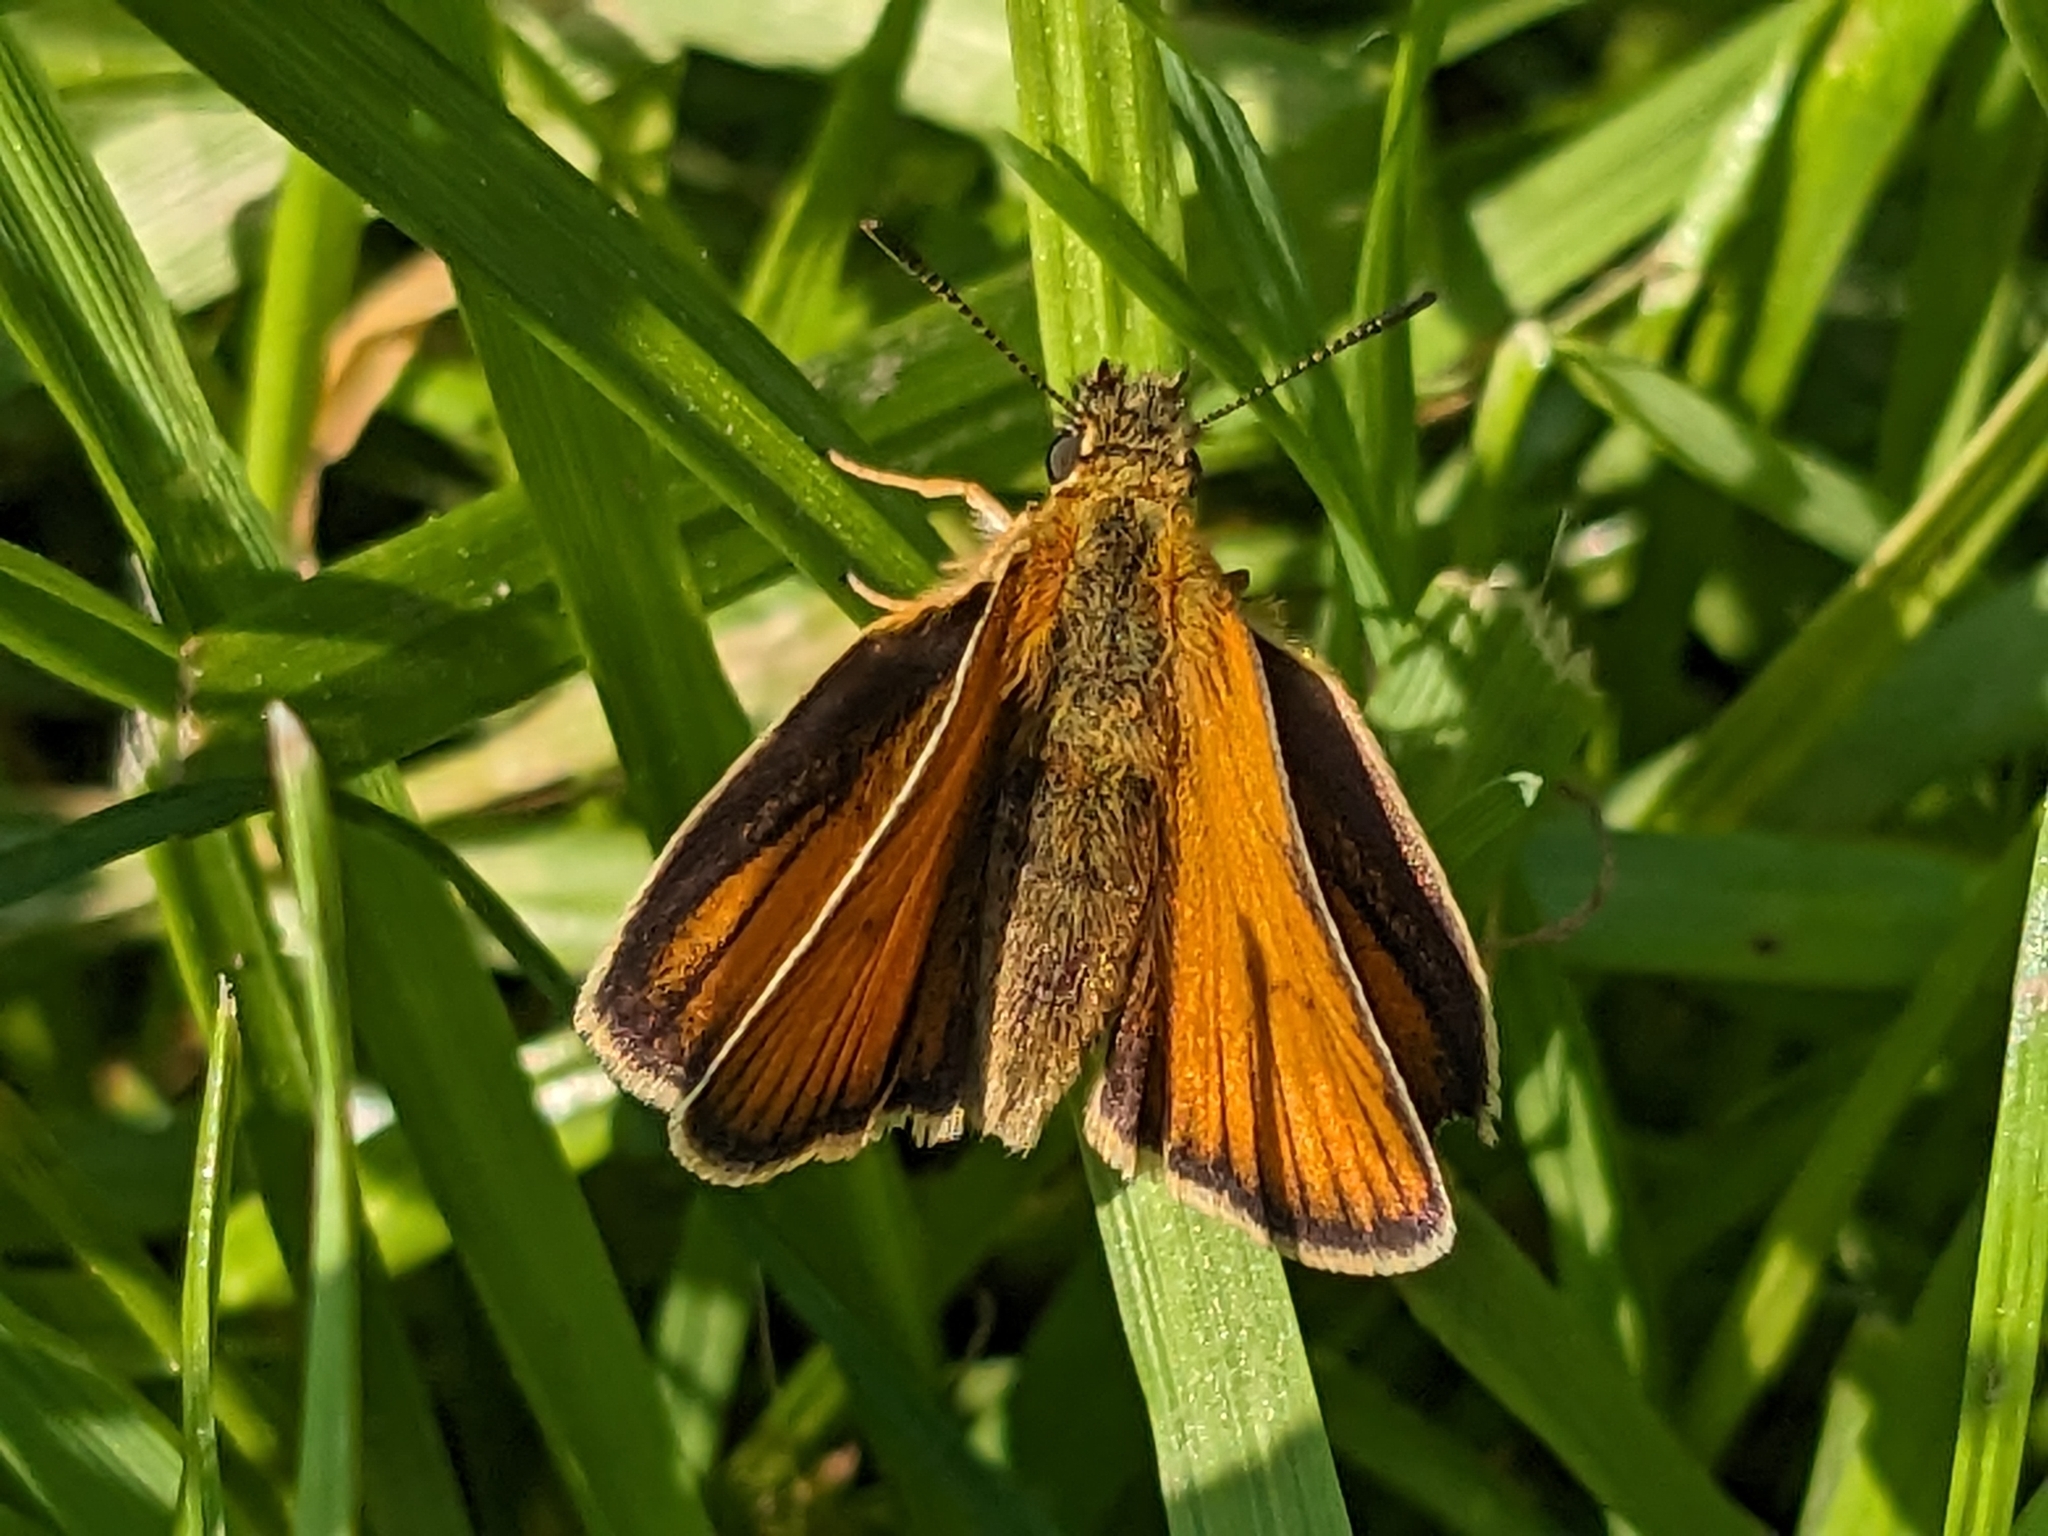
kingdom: Animalia
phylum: Arthropoda
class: Insecta
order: Lepidoptera
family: Hesperiidae
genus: Thymelicus
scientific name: Thymelicus lineola
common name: Essex skipper
